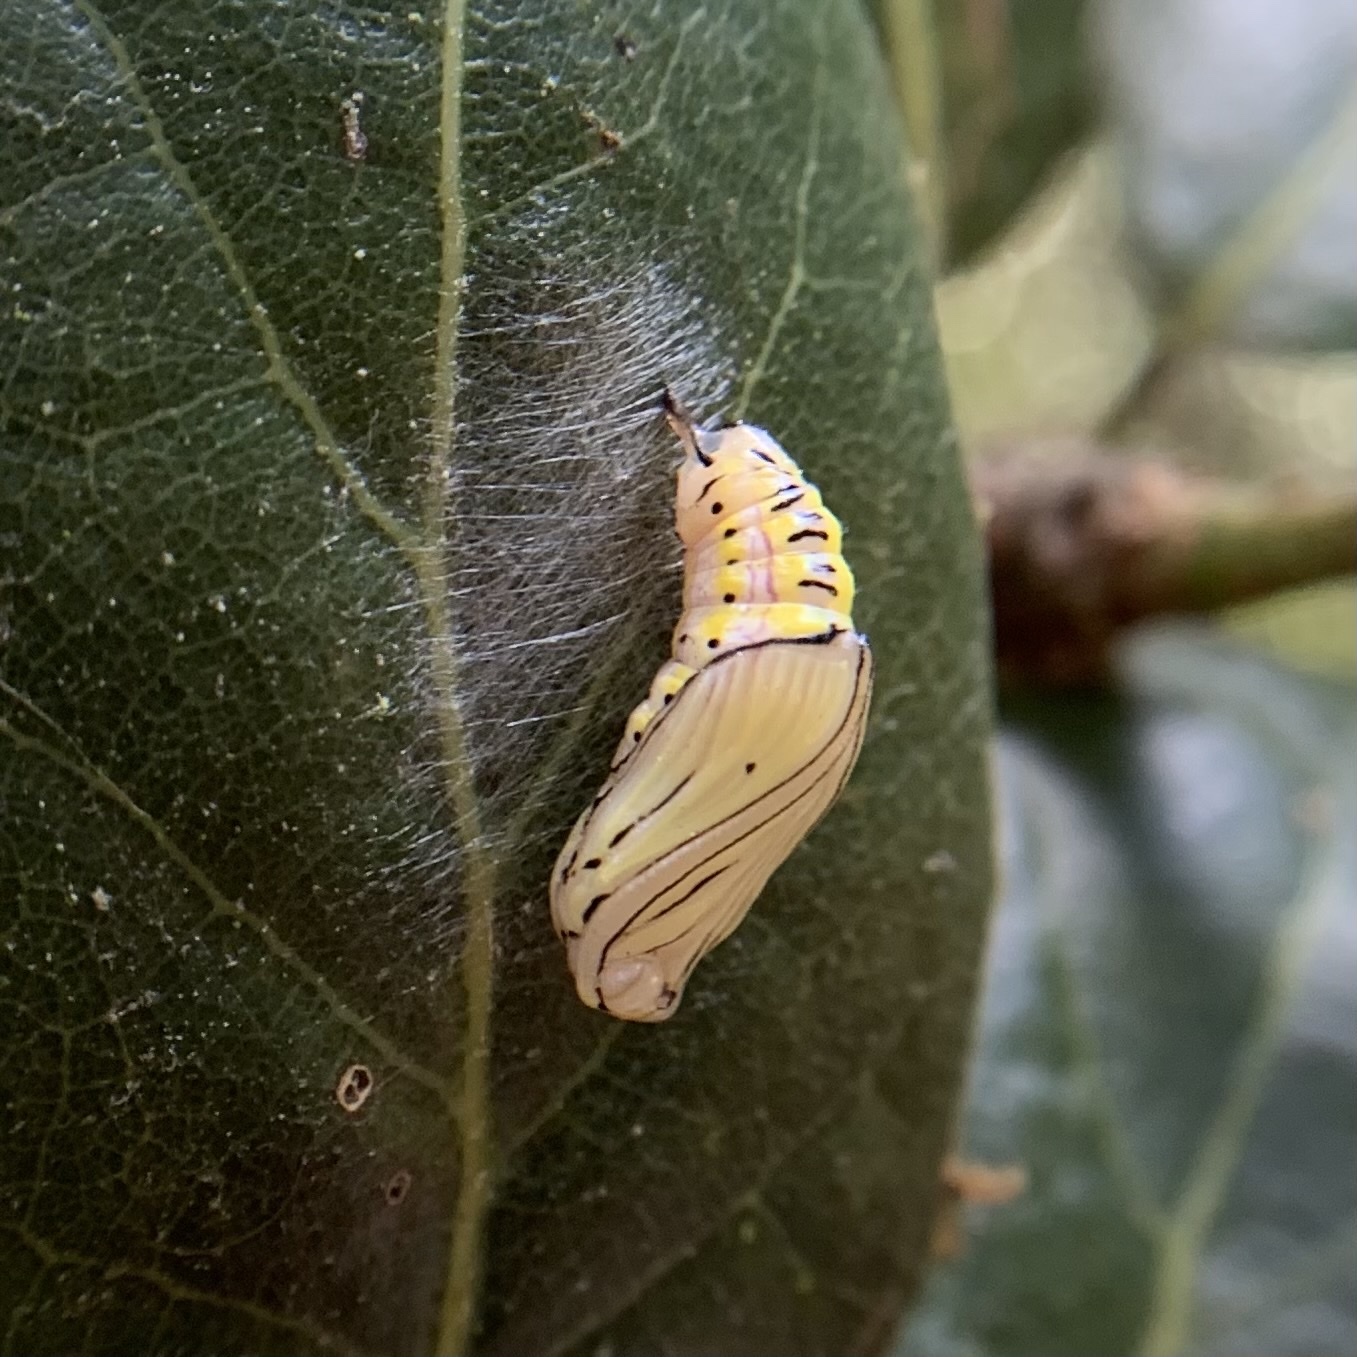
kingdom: Animalia
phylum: Arthropoda
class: Insecta
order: Lepidoptera
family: Notodontidae
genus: Phryganidia
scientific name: Phryganidia californica
